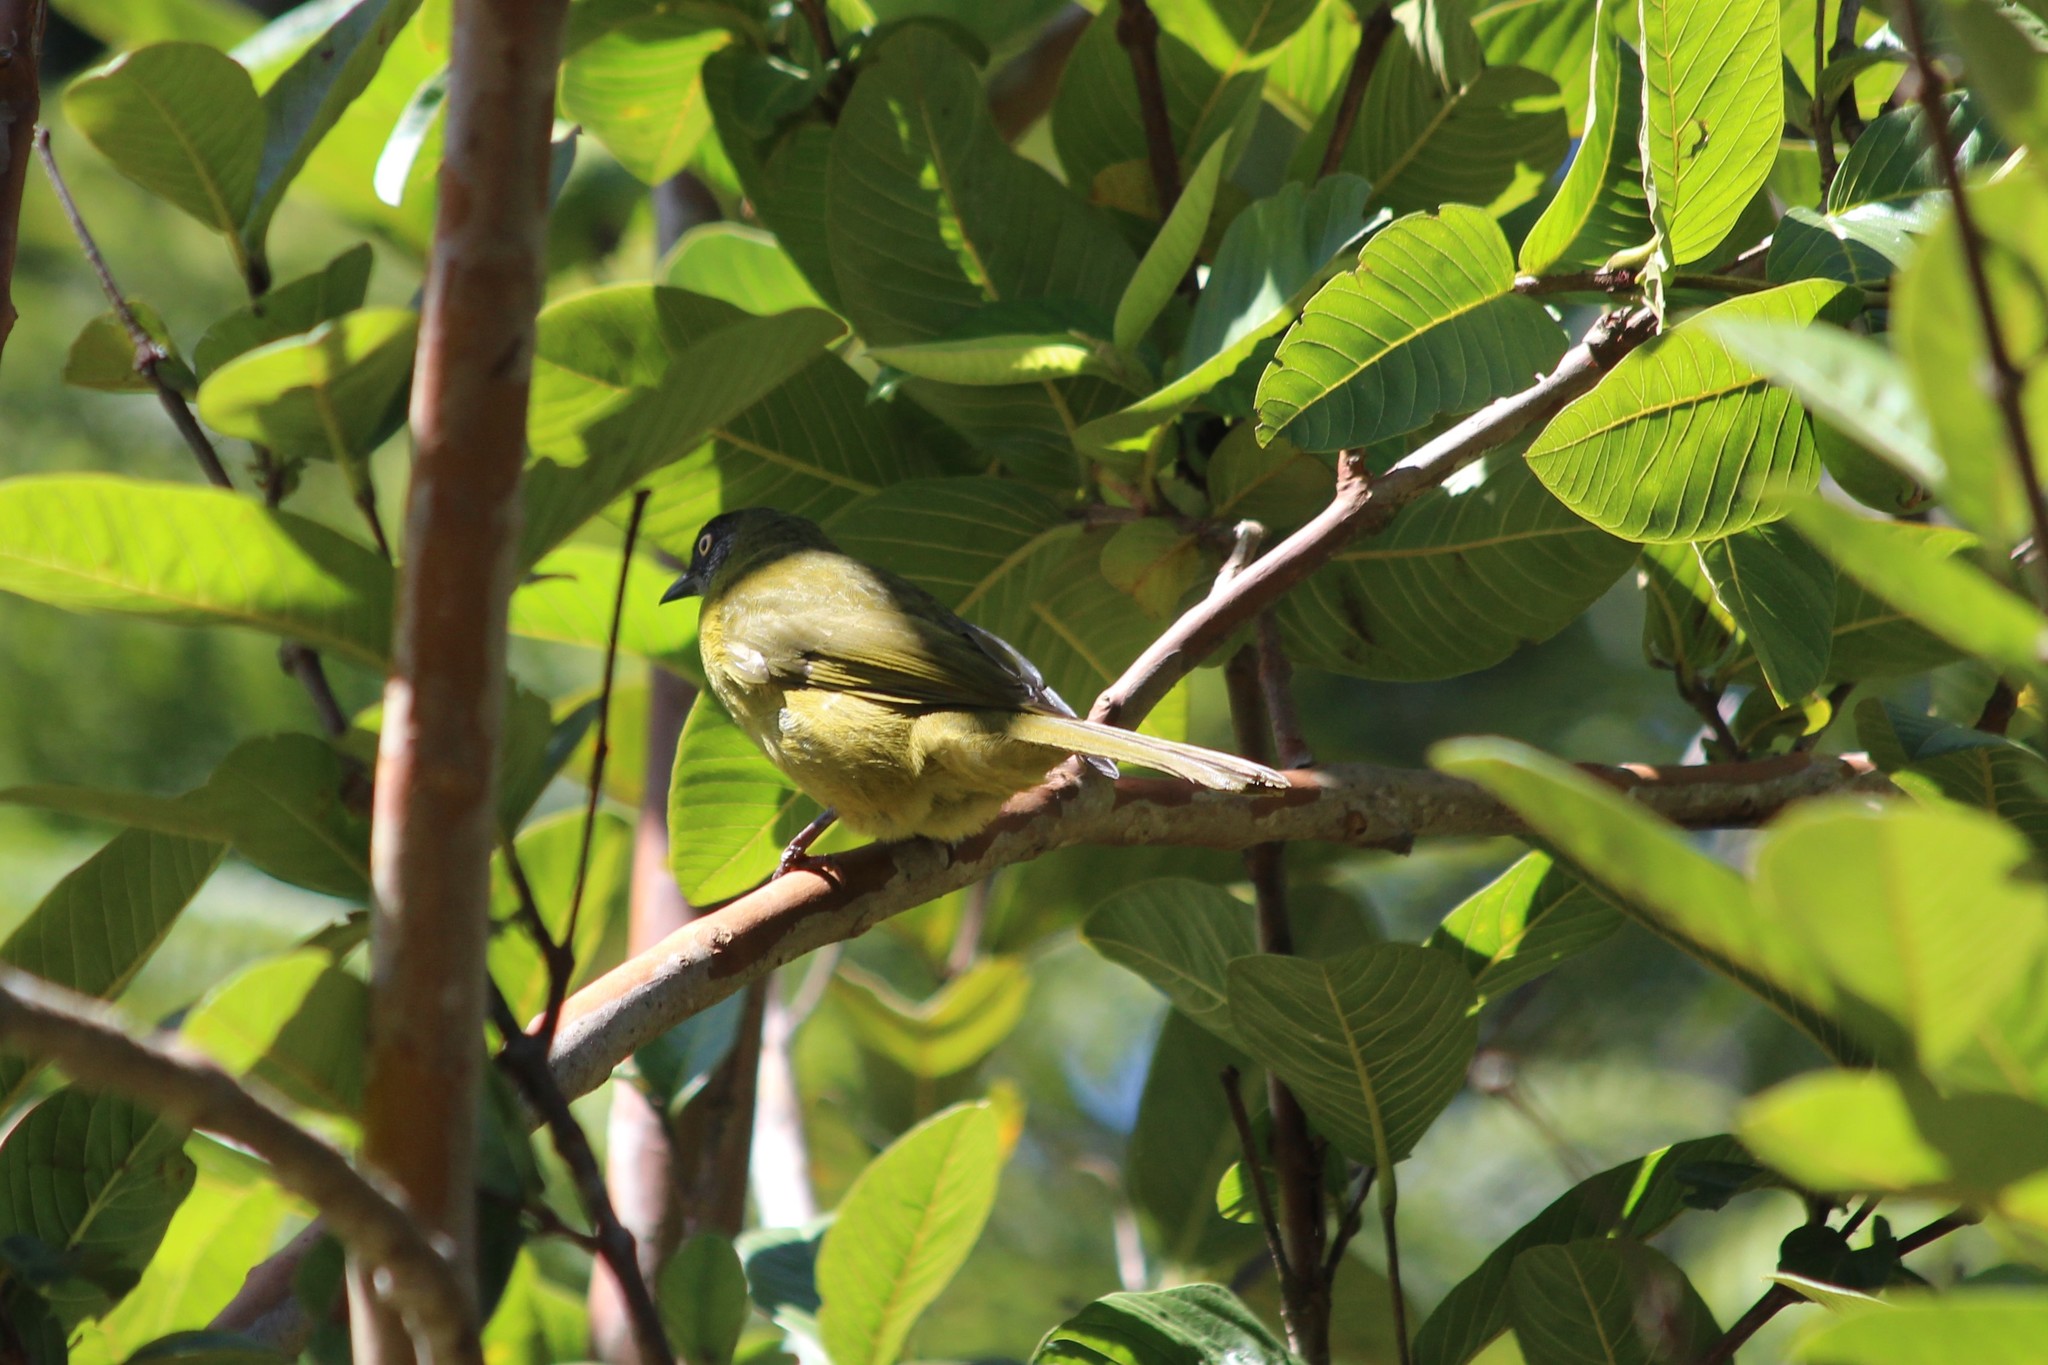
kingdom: Animalia
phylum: Chordata
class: Aves
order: Passeriformes
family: Pycnonotidae
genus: Arizelocichla
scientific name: Arizelocichla milanjensis
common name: Stripe-cheeked greenbul
